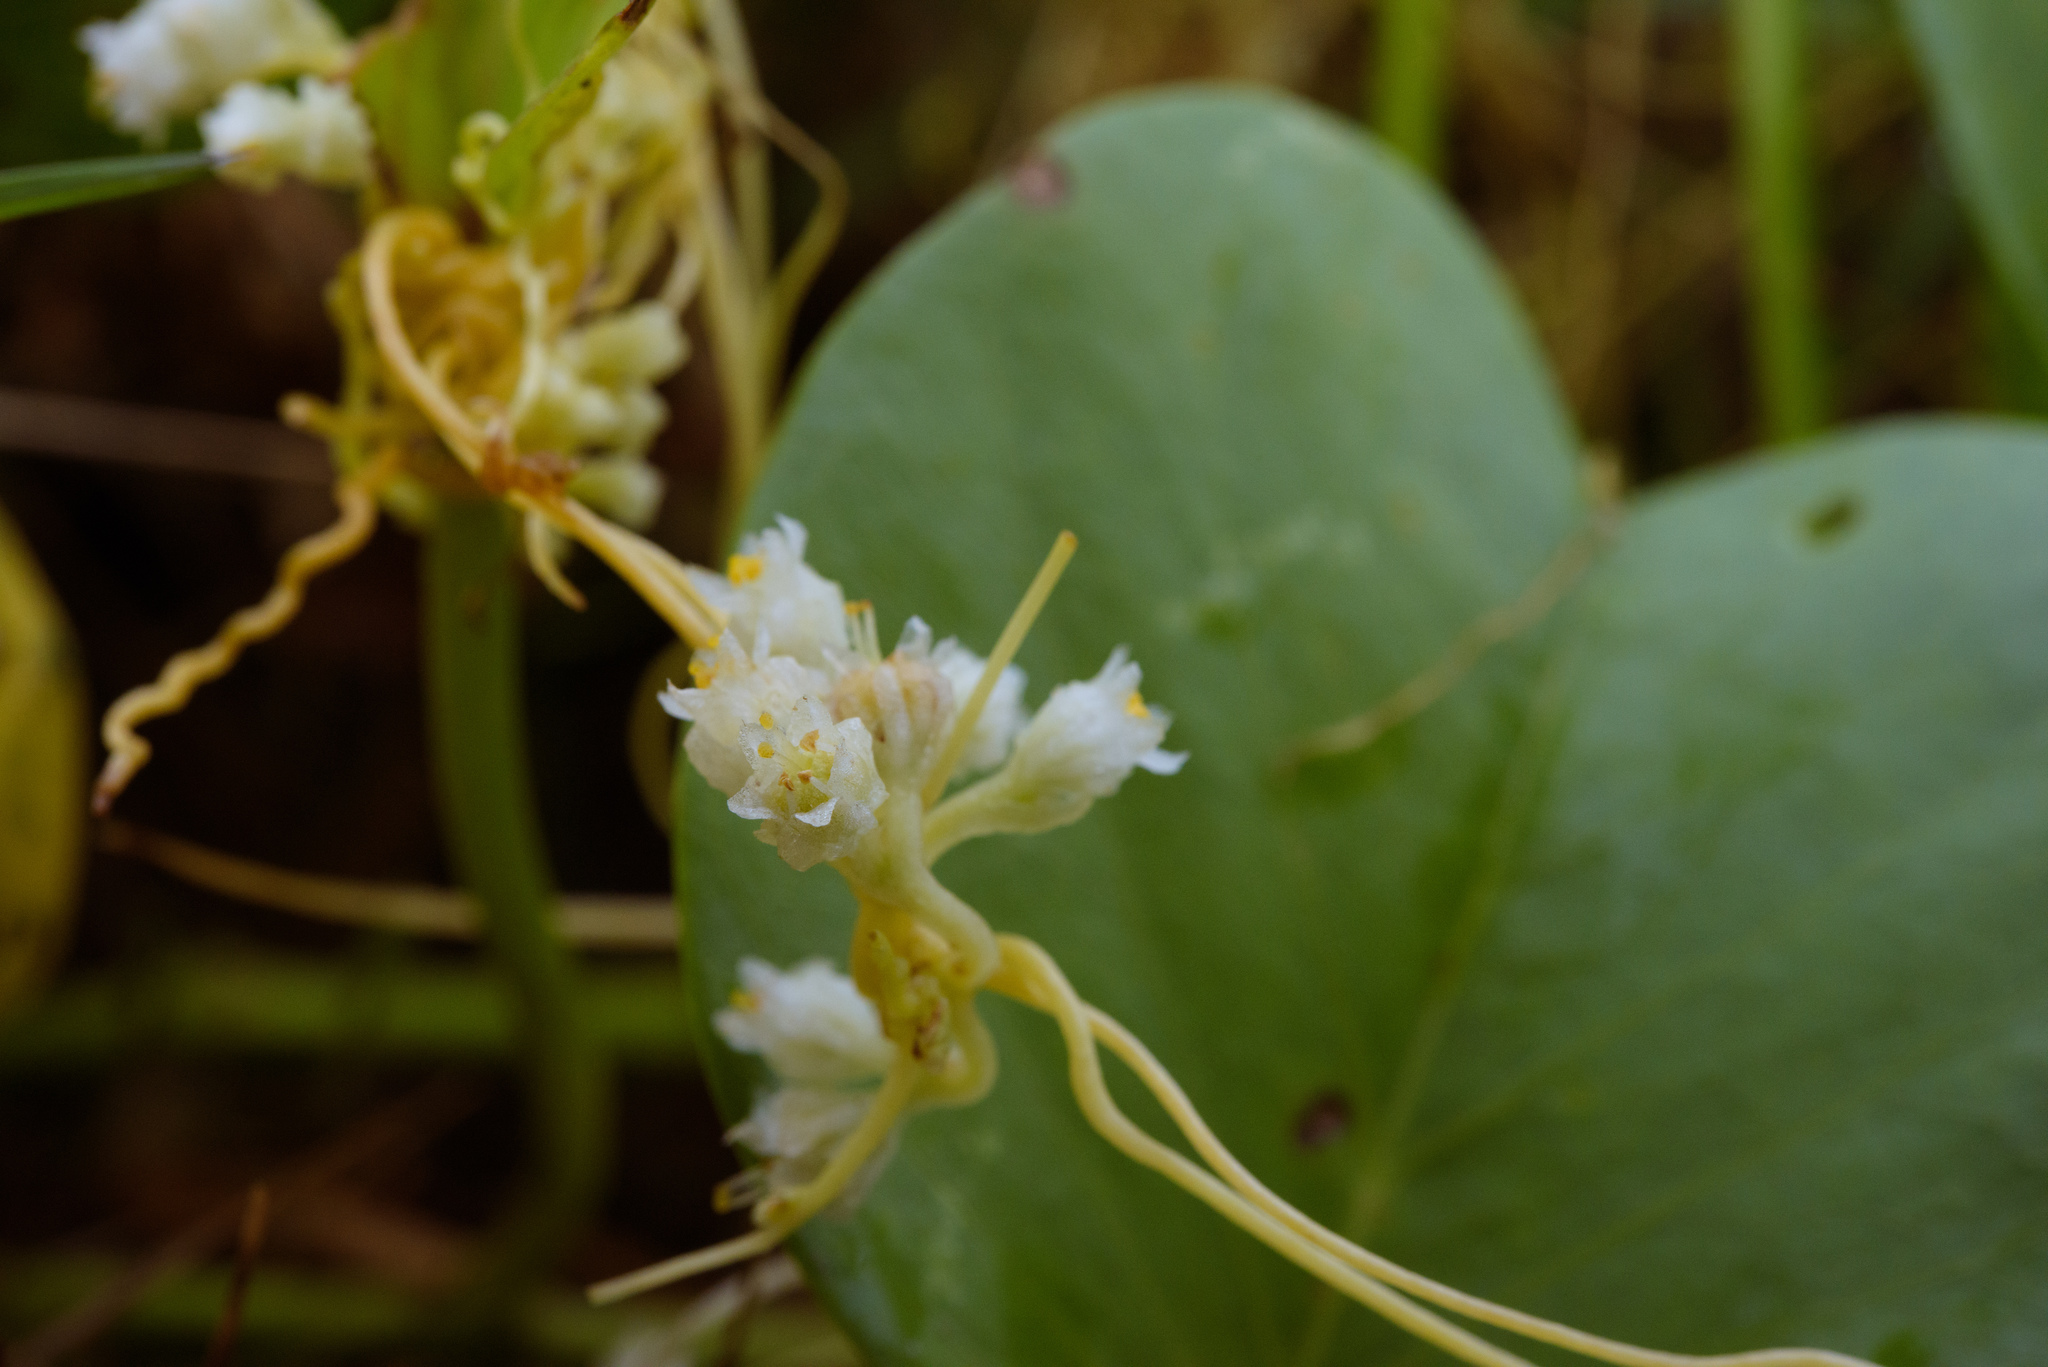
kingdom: Plantae
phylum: Tracheophyta
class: Magnoliopsida
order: Solanales
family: Convolvulaceae
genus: Cuscuta
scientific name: Cuscuta chinensis
